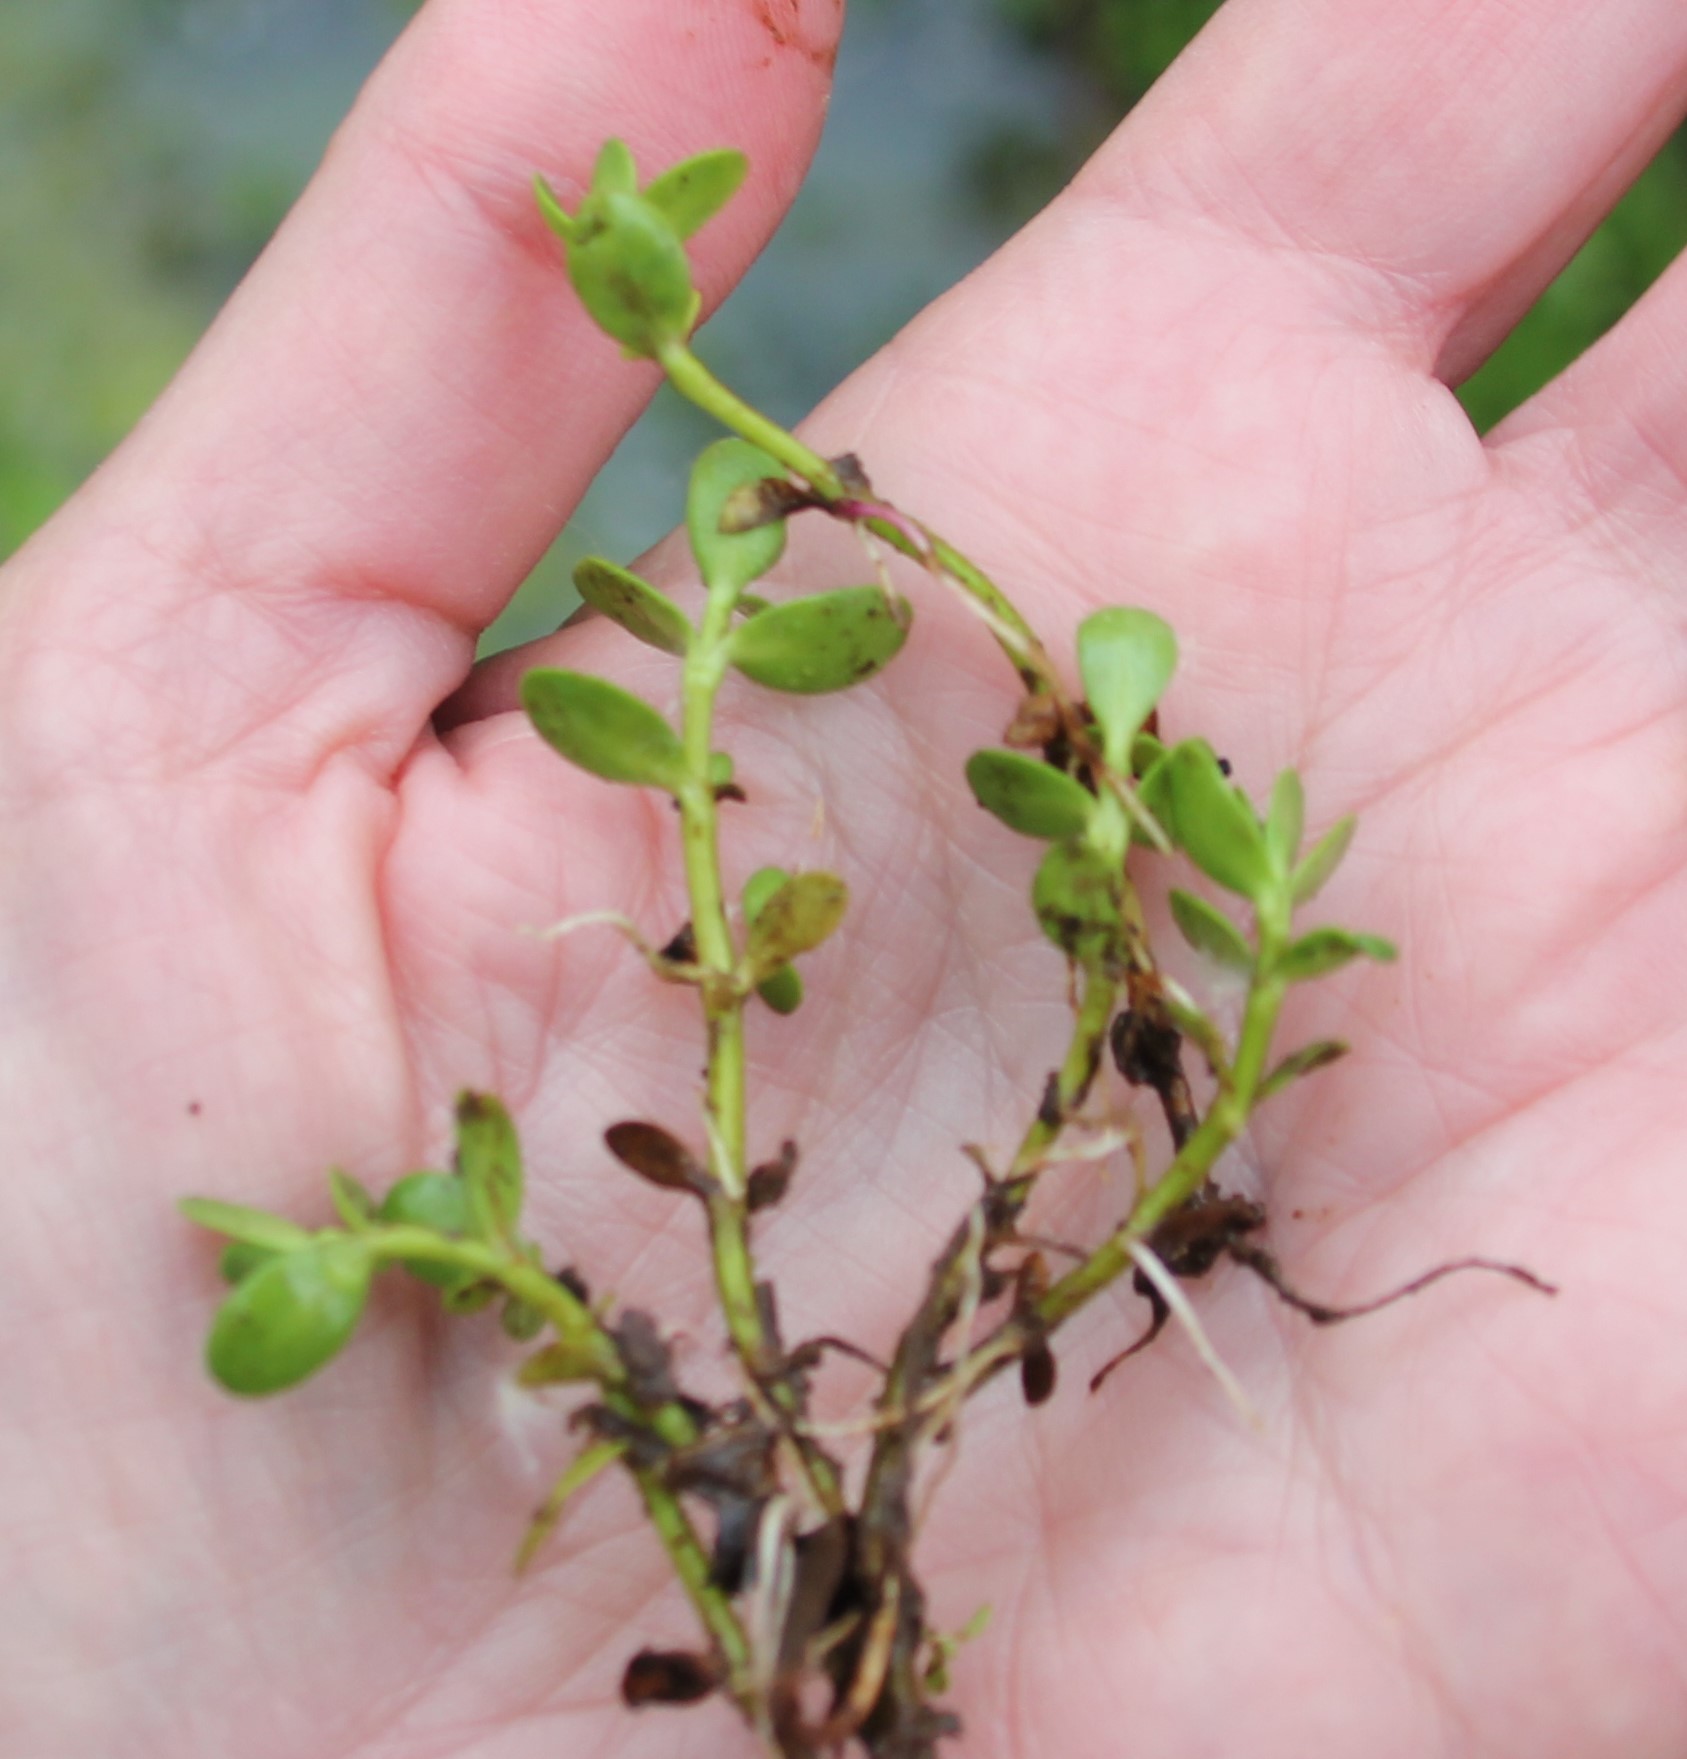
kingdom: Plantae
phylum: Tracheophyta
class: Magnoliopsida
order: Lamiales
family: Plantaginaceae
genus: Bacopa
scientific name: Bacopa monnieri
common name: Indian-pennywort
